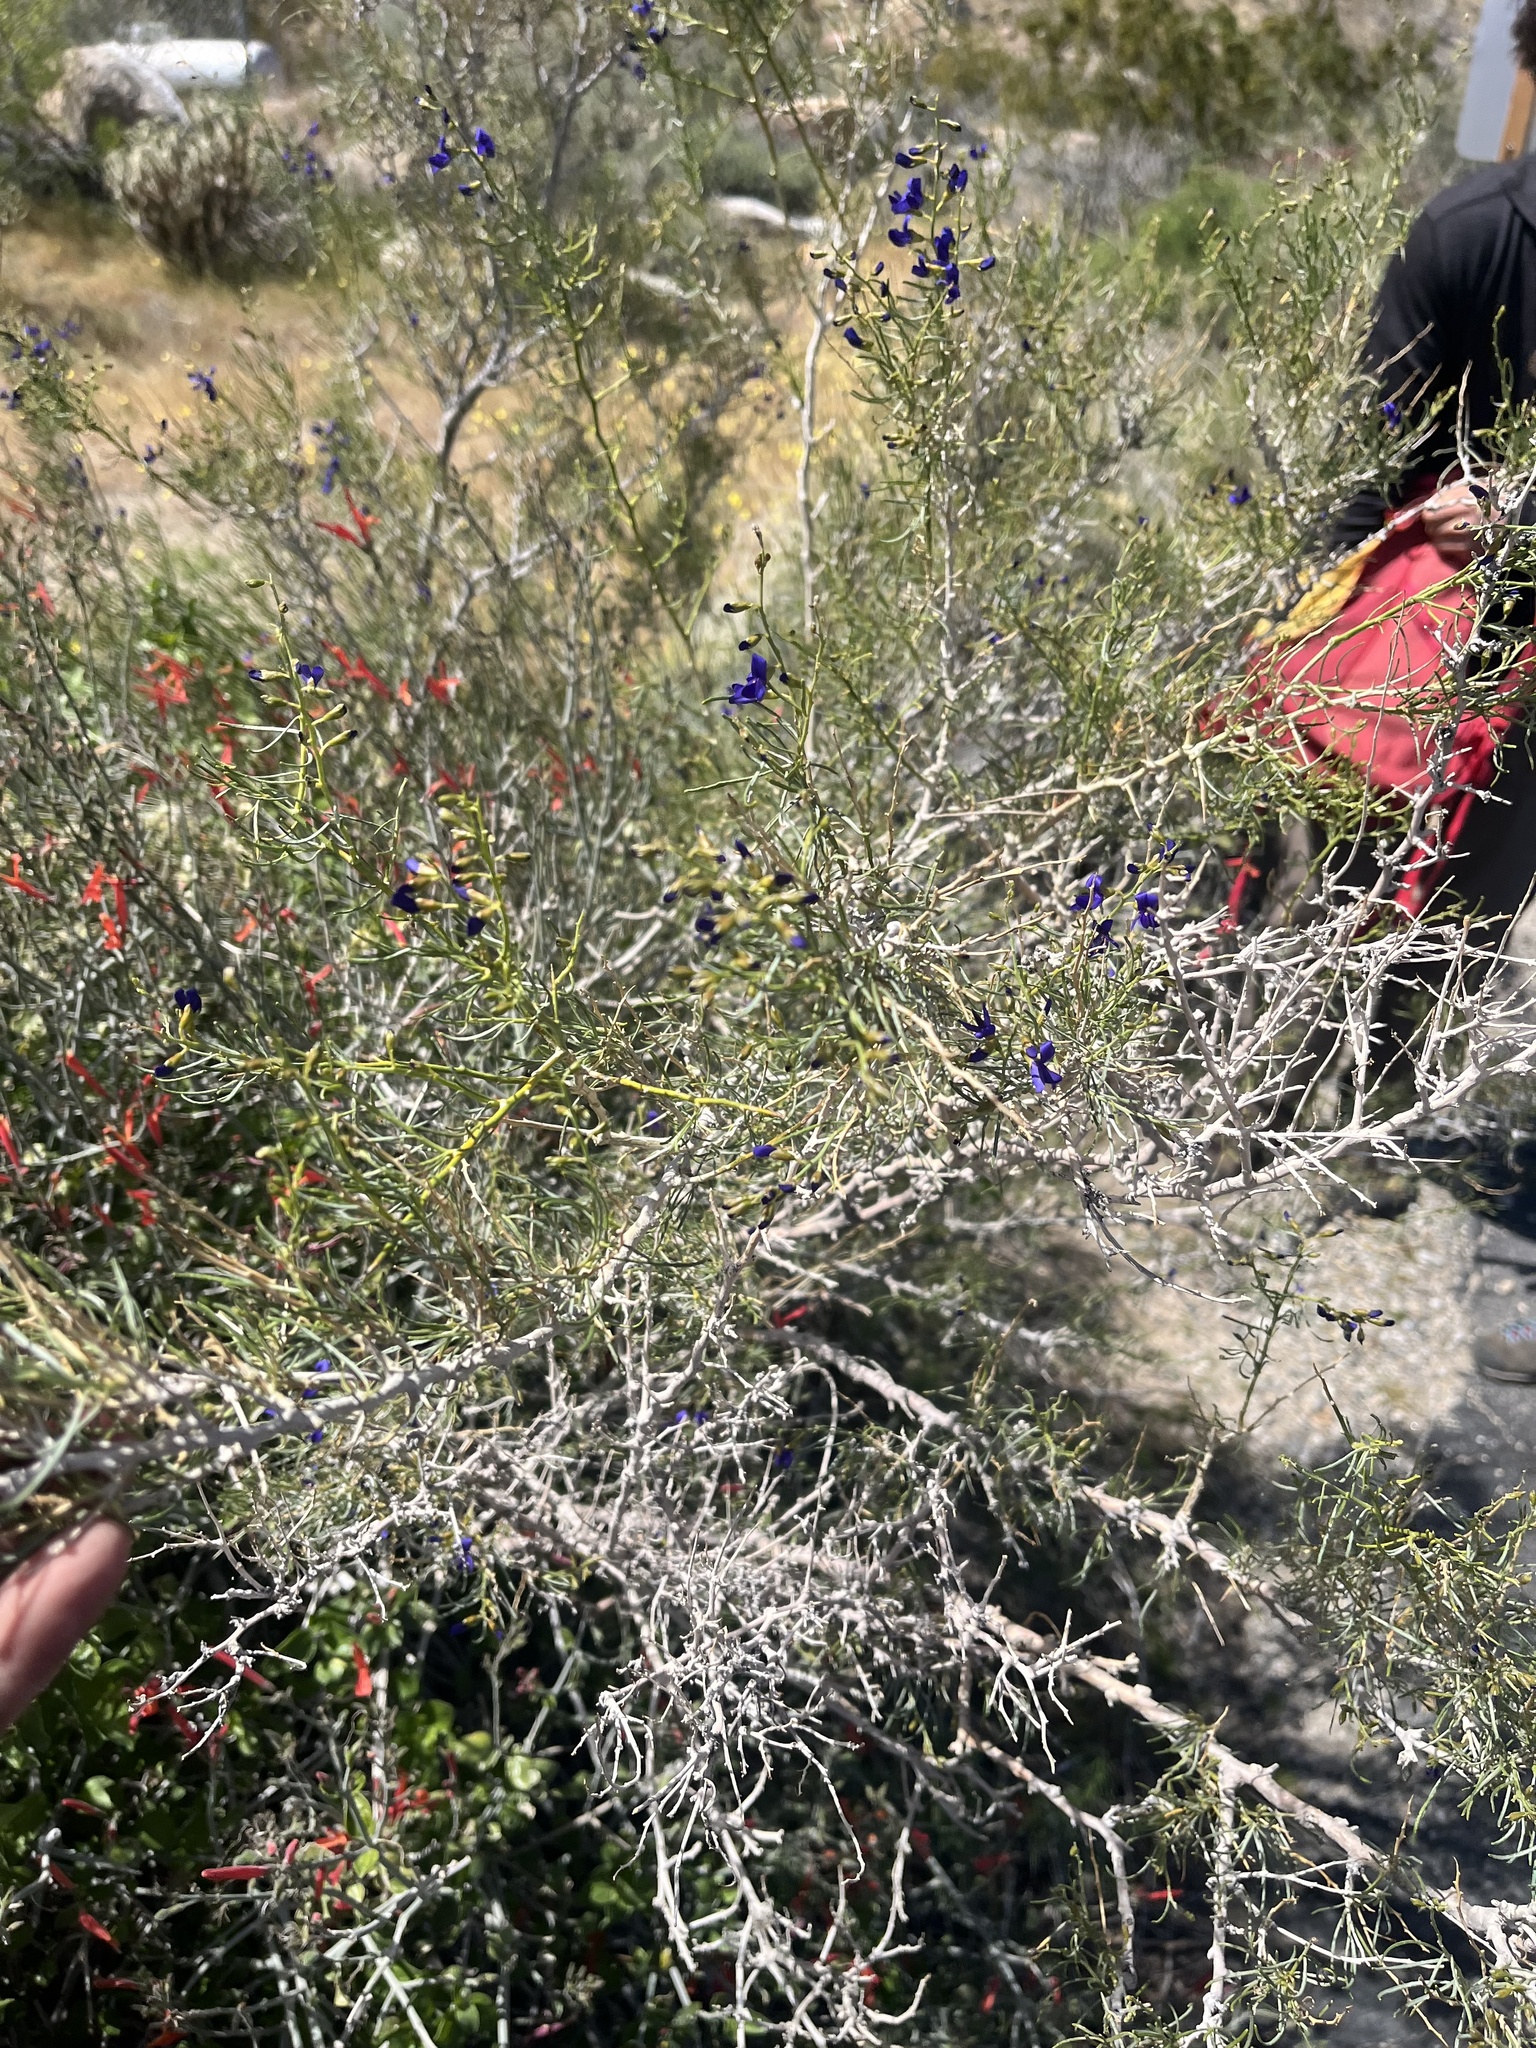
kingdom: Plantae
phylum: Tracheophyta
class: Magnoliopsida
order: Fabales
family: Fabaceae
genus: Psorothamnus
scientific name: Psorothamnus schottii
